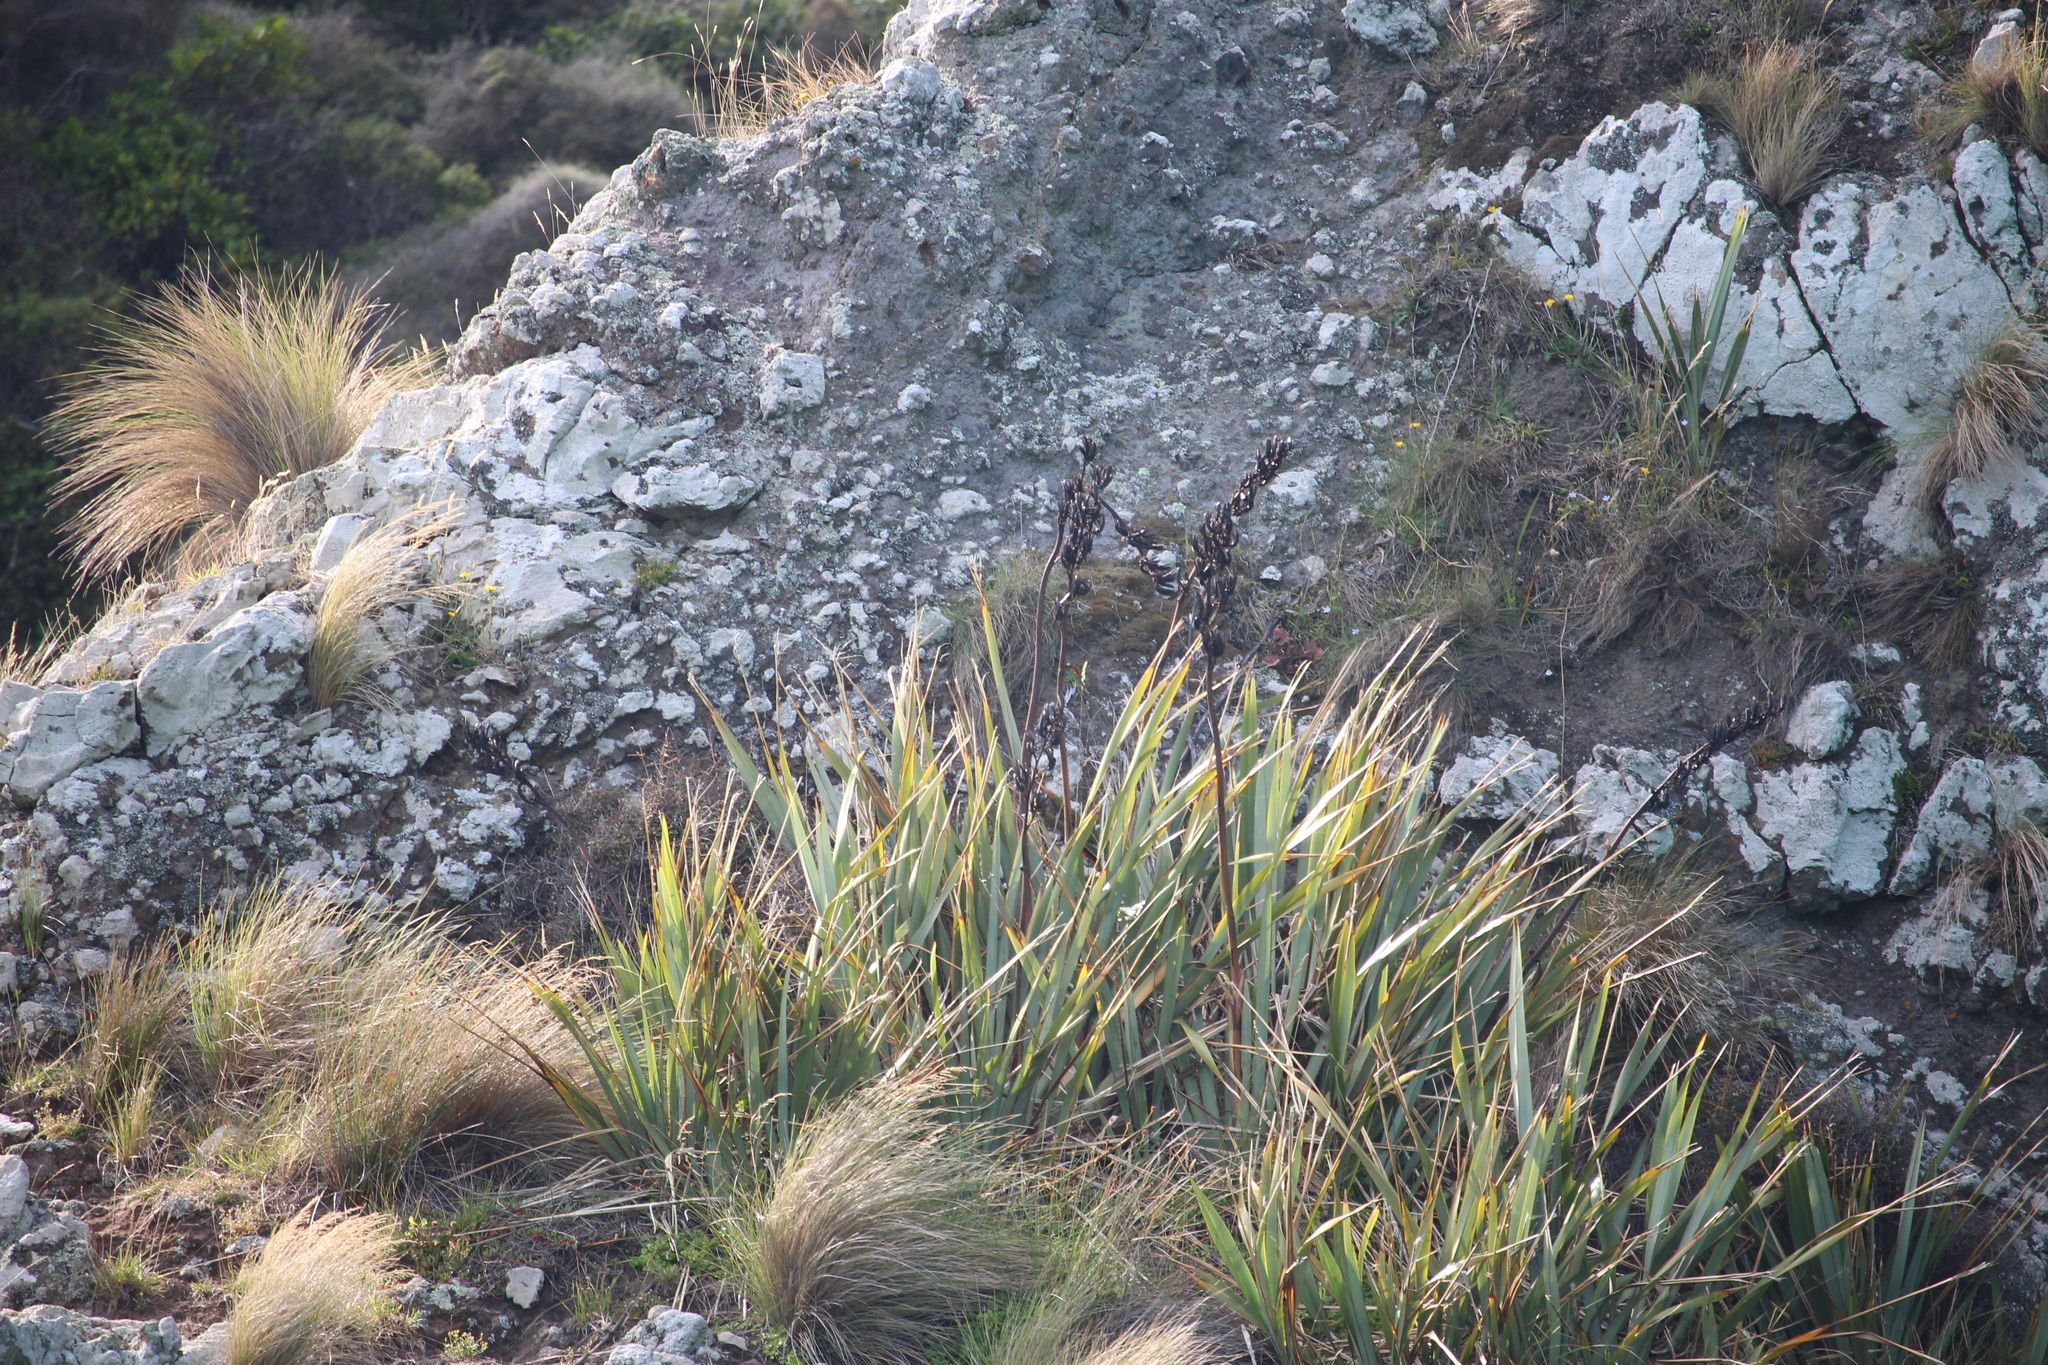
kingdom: Plantae
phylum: Tracheophyta
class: Liliopsida
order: Asparagales
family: Asphodelaceae
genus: Phormium
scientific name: Phormium tenax
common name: New zealand flax
